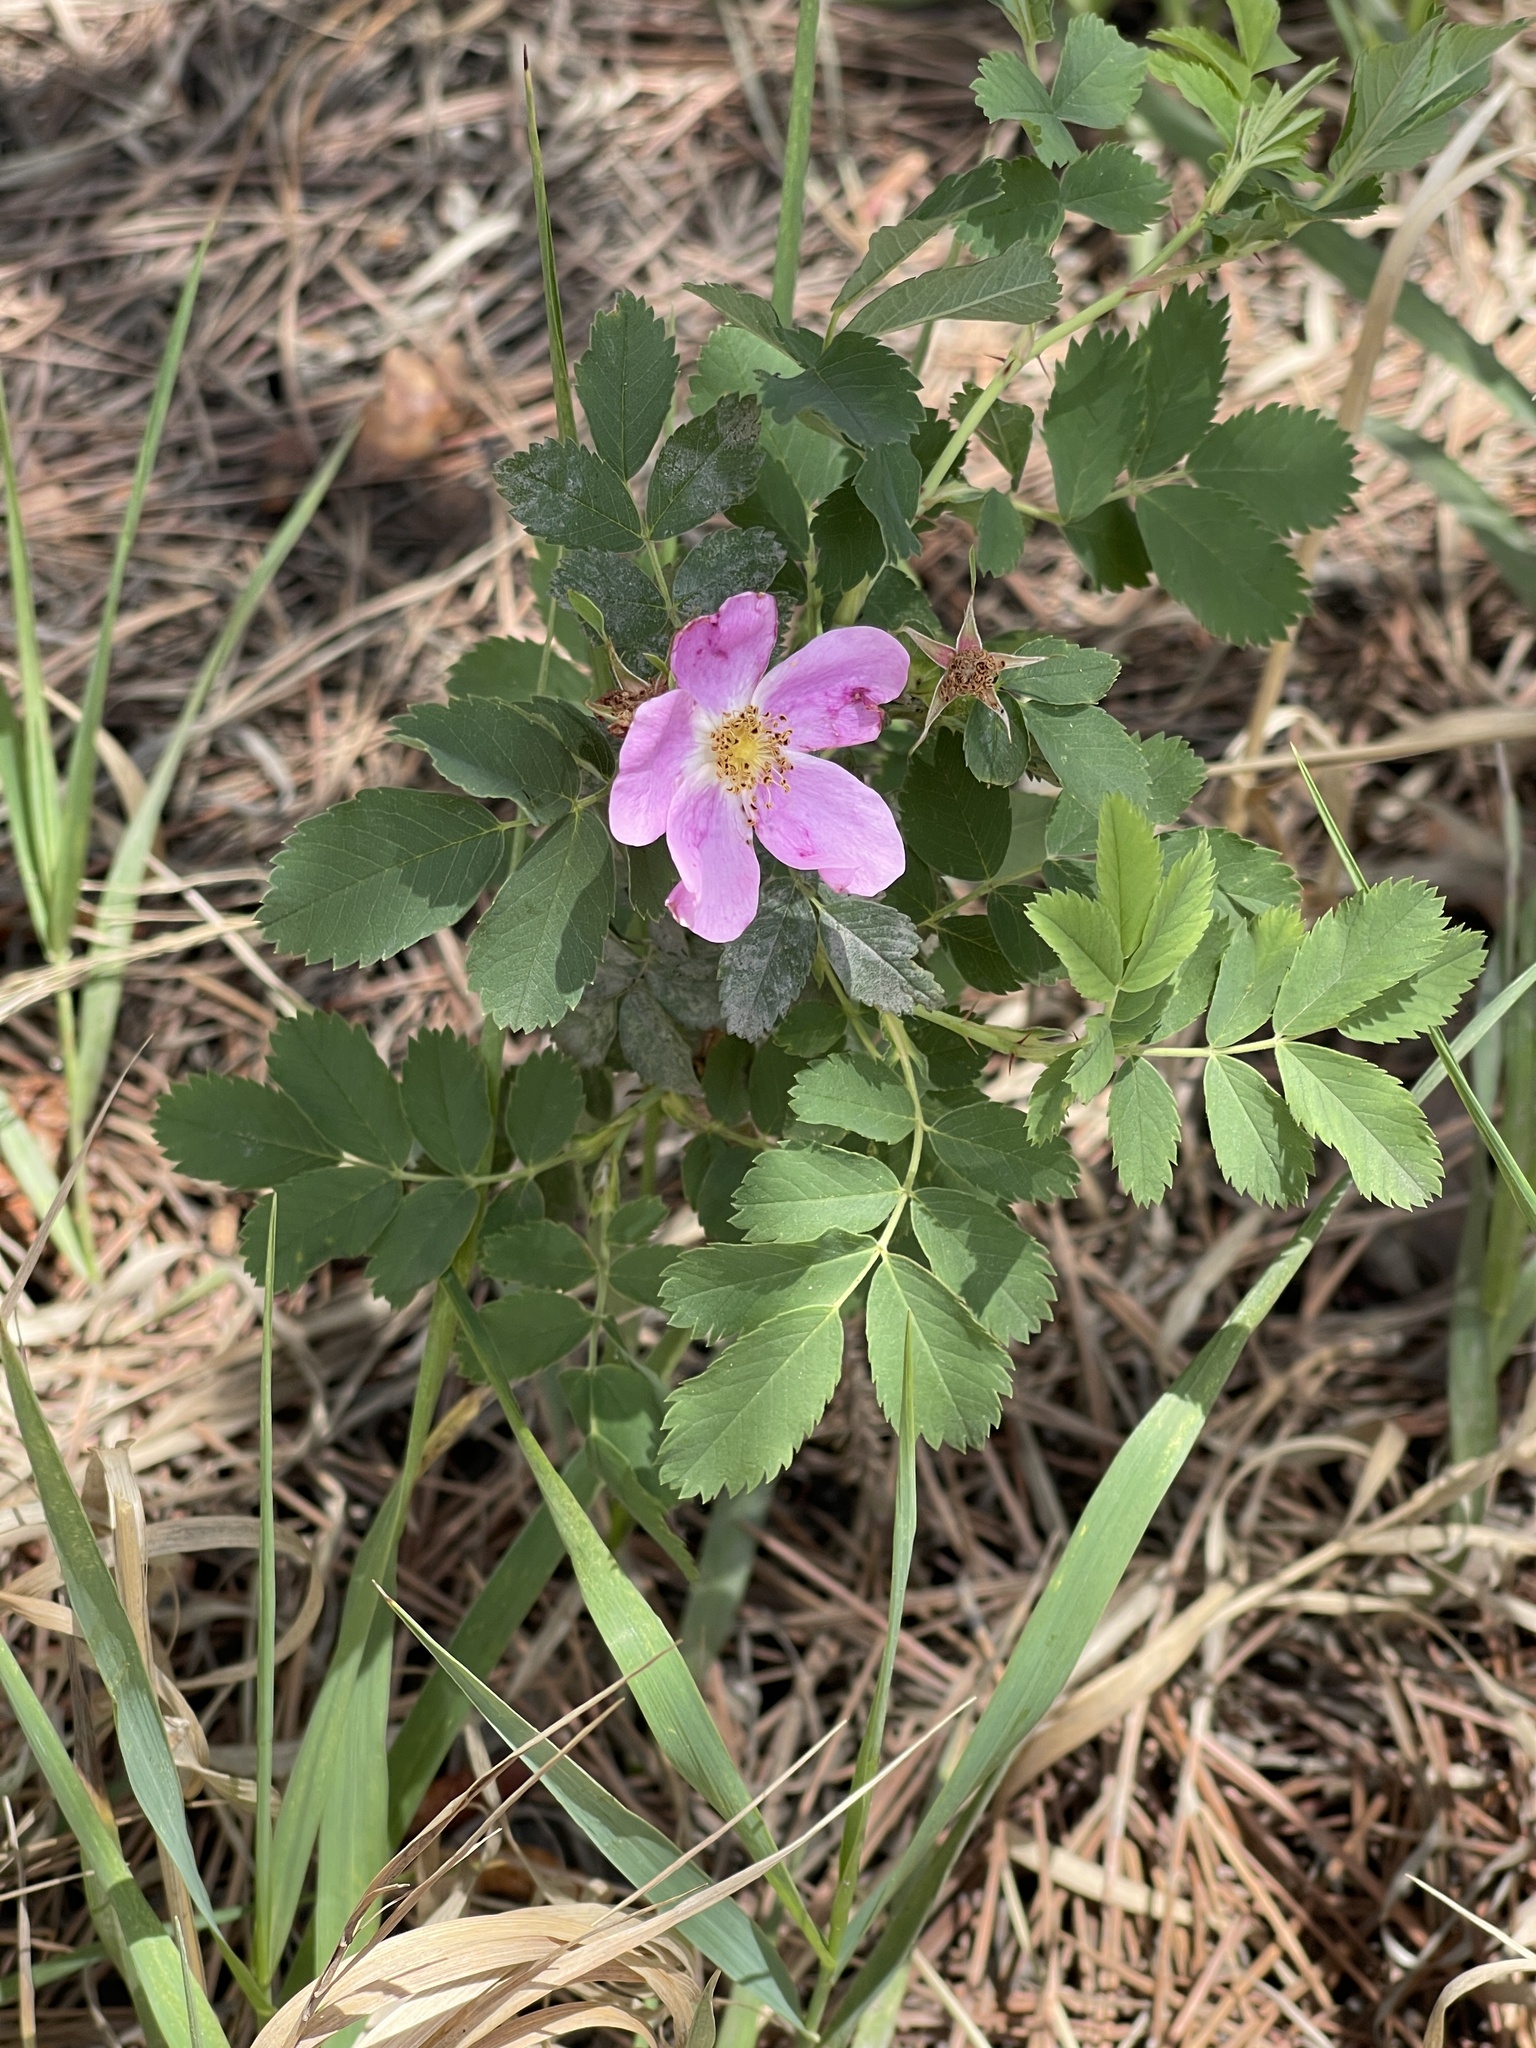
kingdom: Plantae
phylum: Tracheophyta
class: Magnoliopsida
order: Rosales
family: Rosaceae
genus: Rosa
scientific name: Rosa woodsii
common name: Woods's rose
